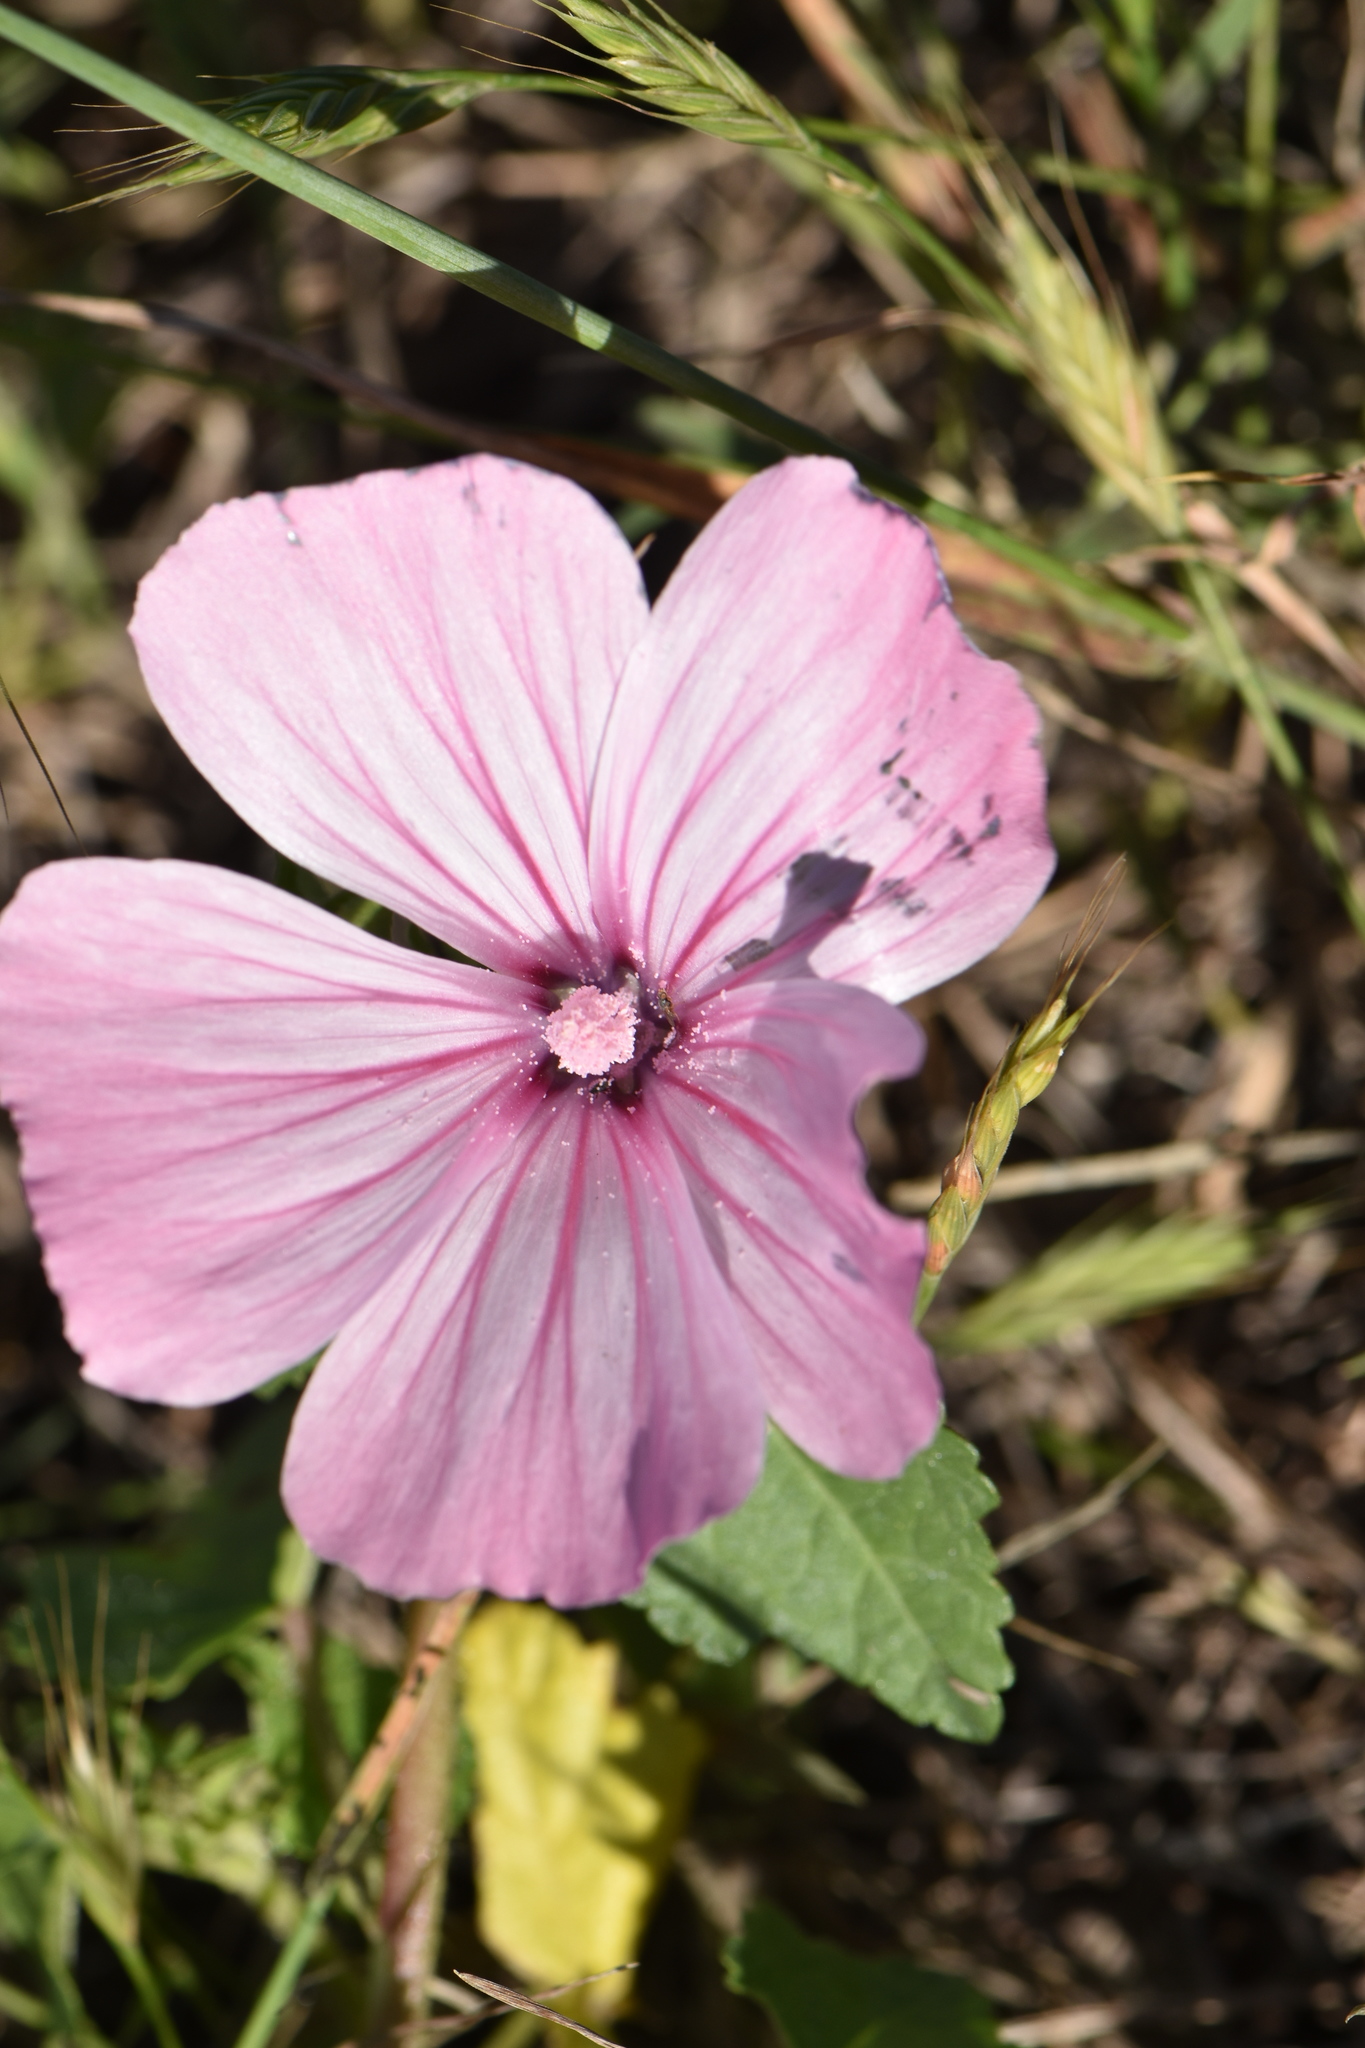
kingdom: Plantae
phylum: Tracheophyta
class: Magnoliopsida
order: Malvales
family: Malvaceae
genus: Malva
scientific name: Malva trimestris
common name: Royal mallow
